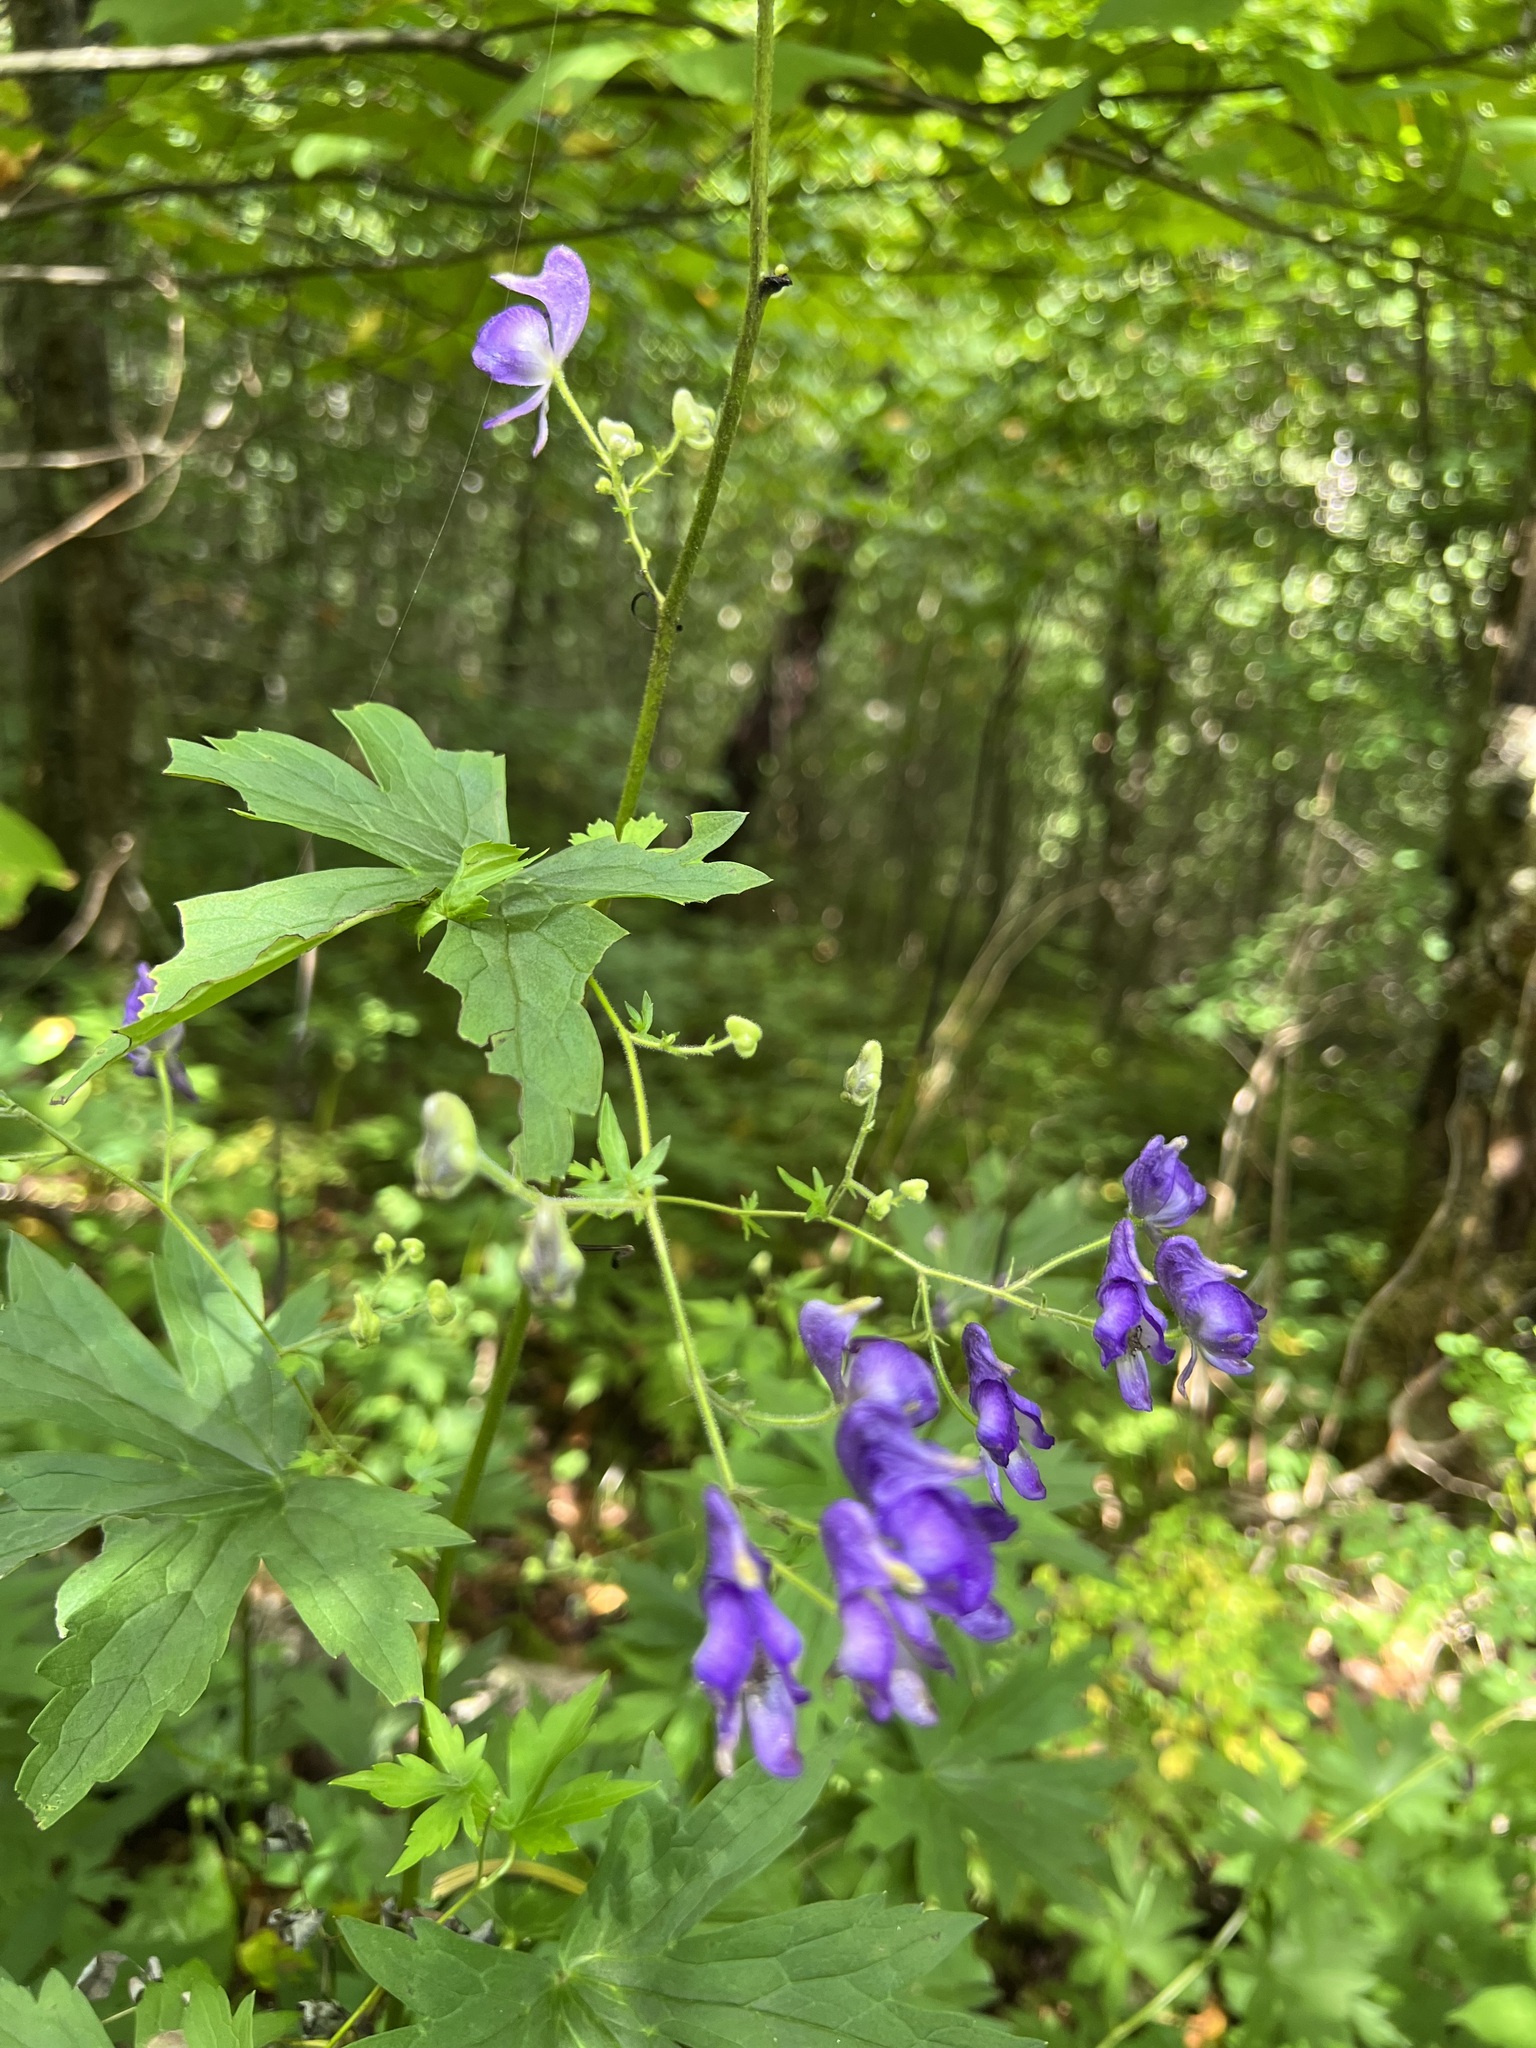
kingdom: Plantae
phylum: Tracheophyta
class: Magnoliopsida
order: Ranunculales
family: Ranunculaceae
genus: Aconitum
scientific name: Aconitum uncinatum
